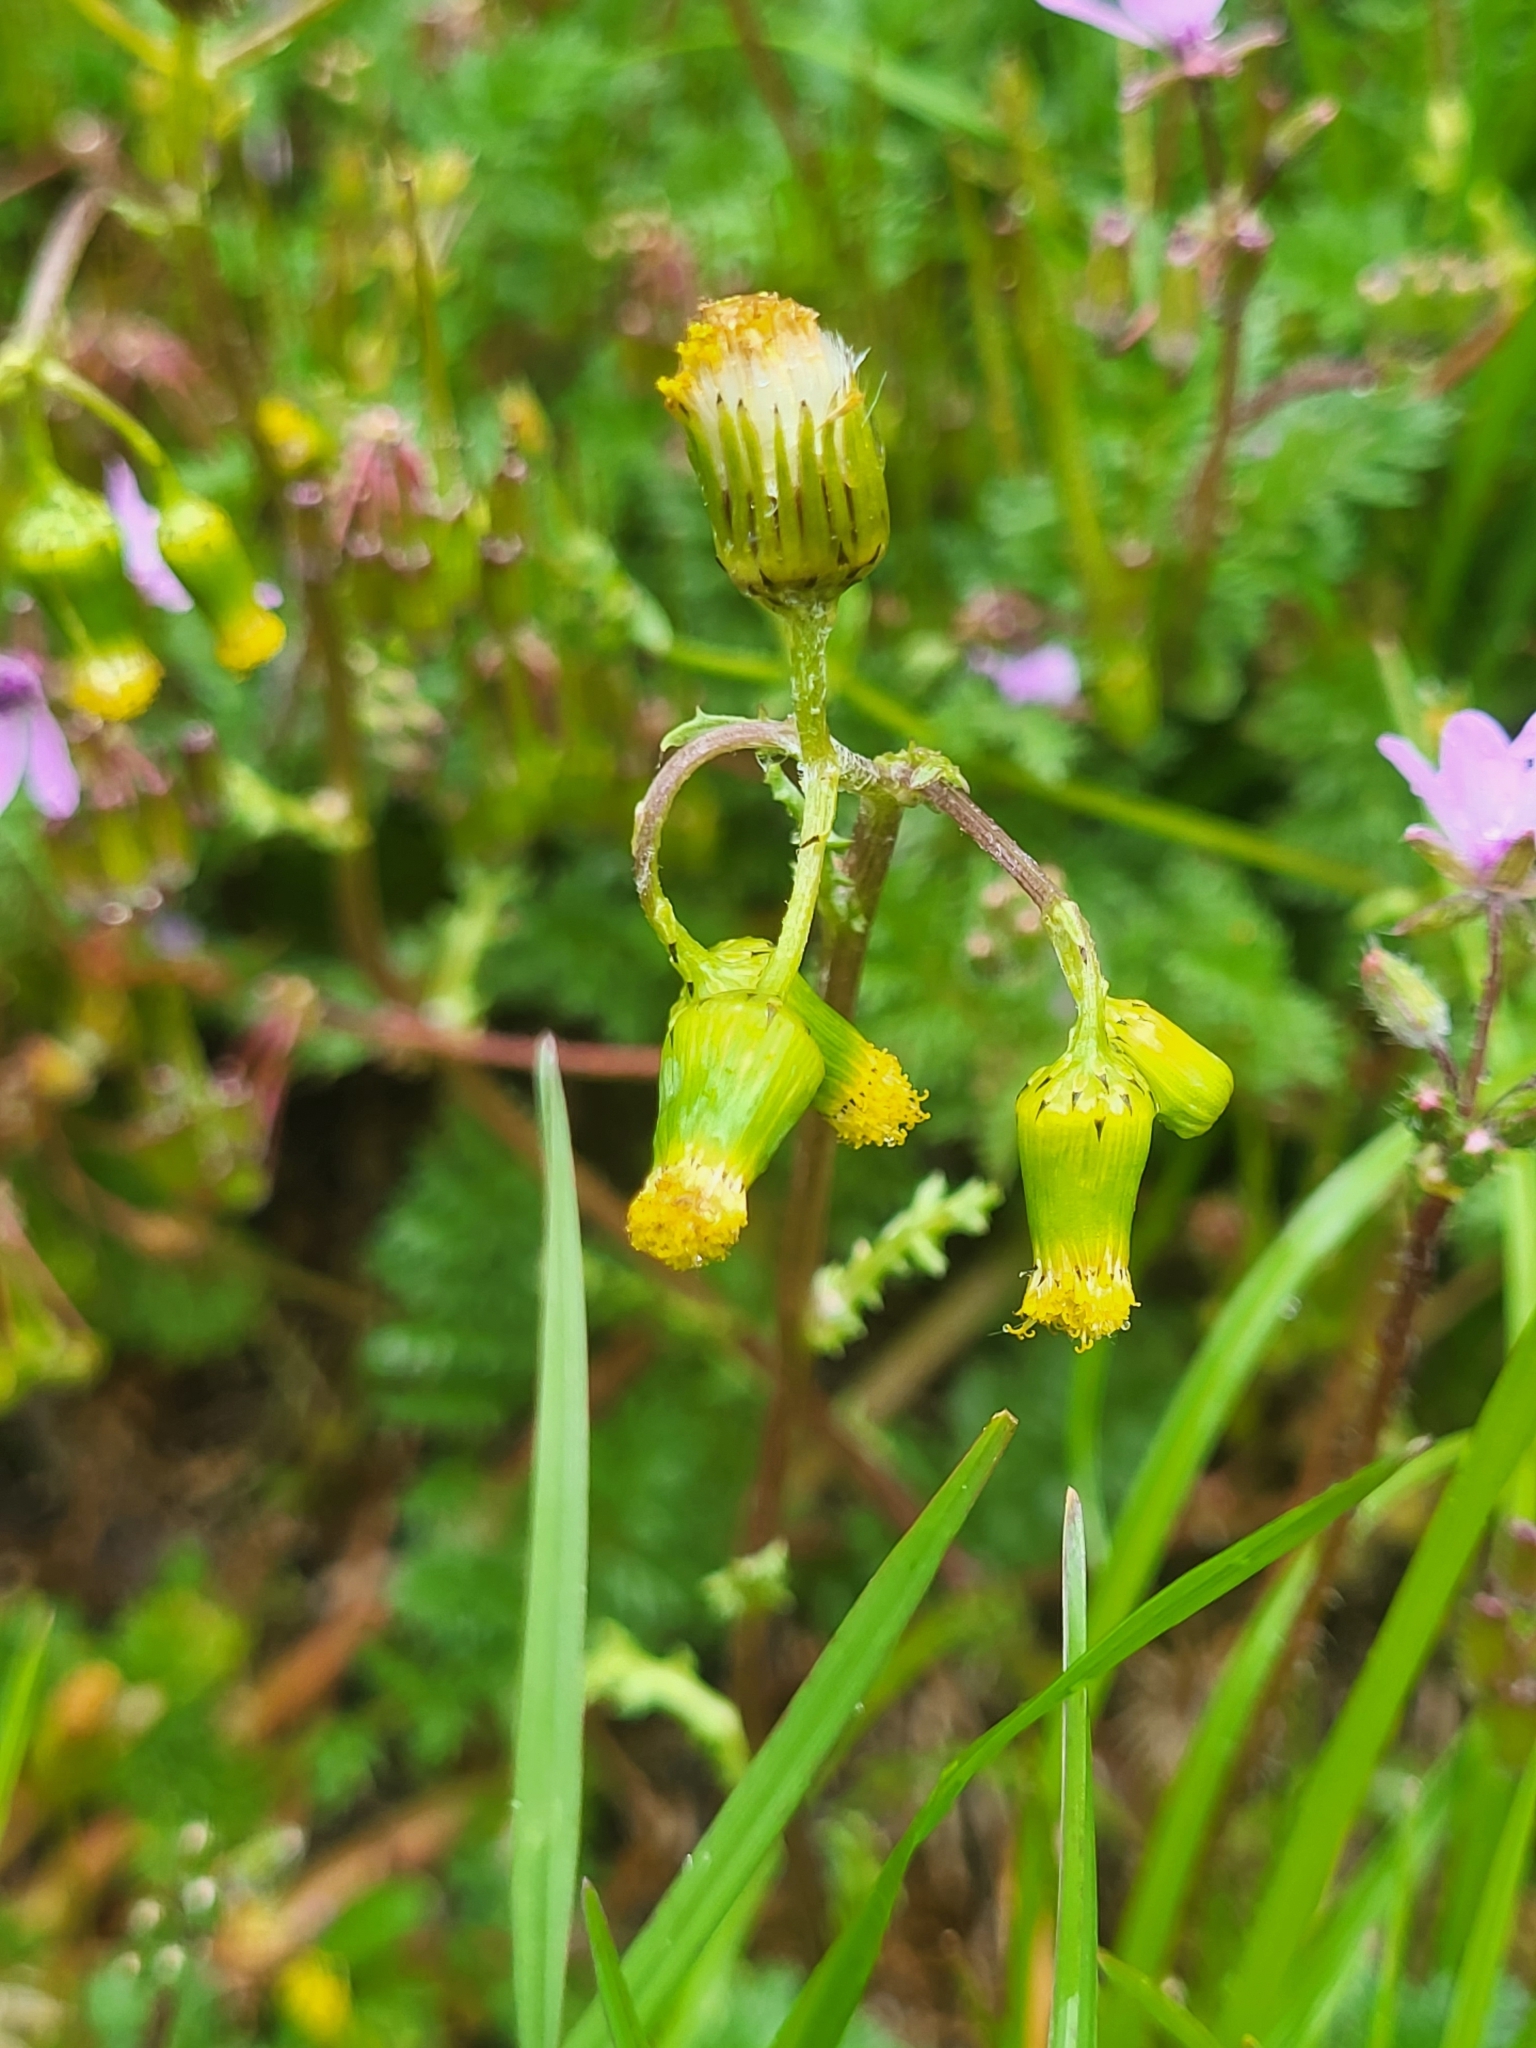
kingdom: Plantae
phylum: Tracheophyta
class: Magnoliopsida
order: Asterales
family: Asteraceae
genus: Senecio
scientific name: Senecio vulgaris
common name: Old-man-in-the-spring
